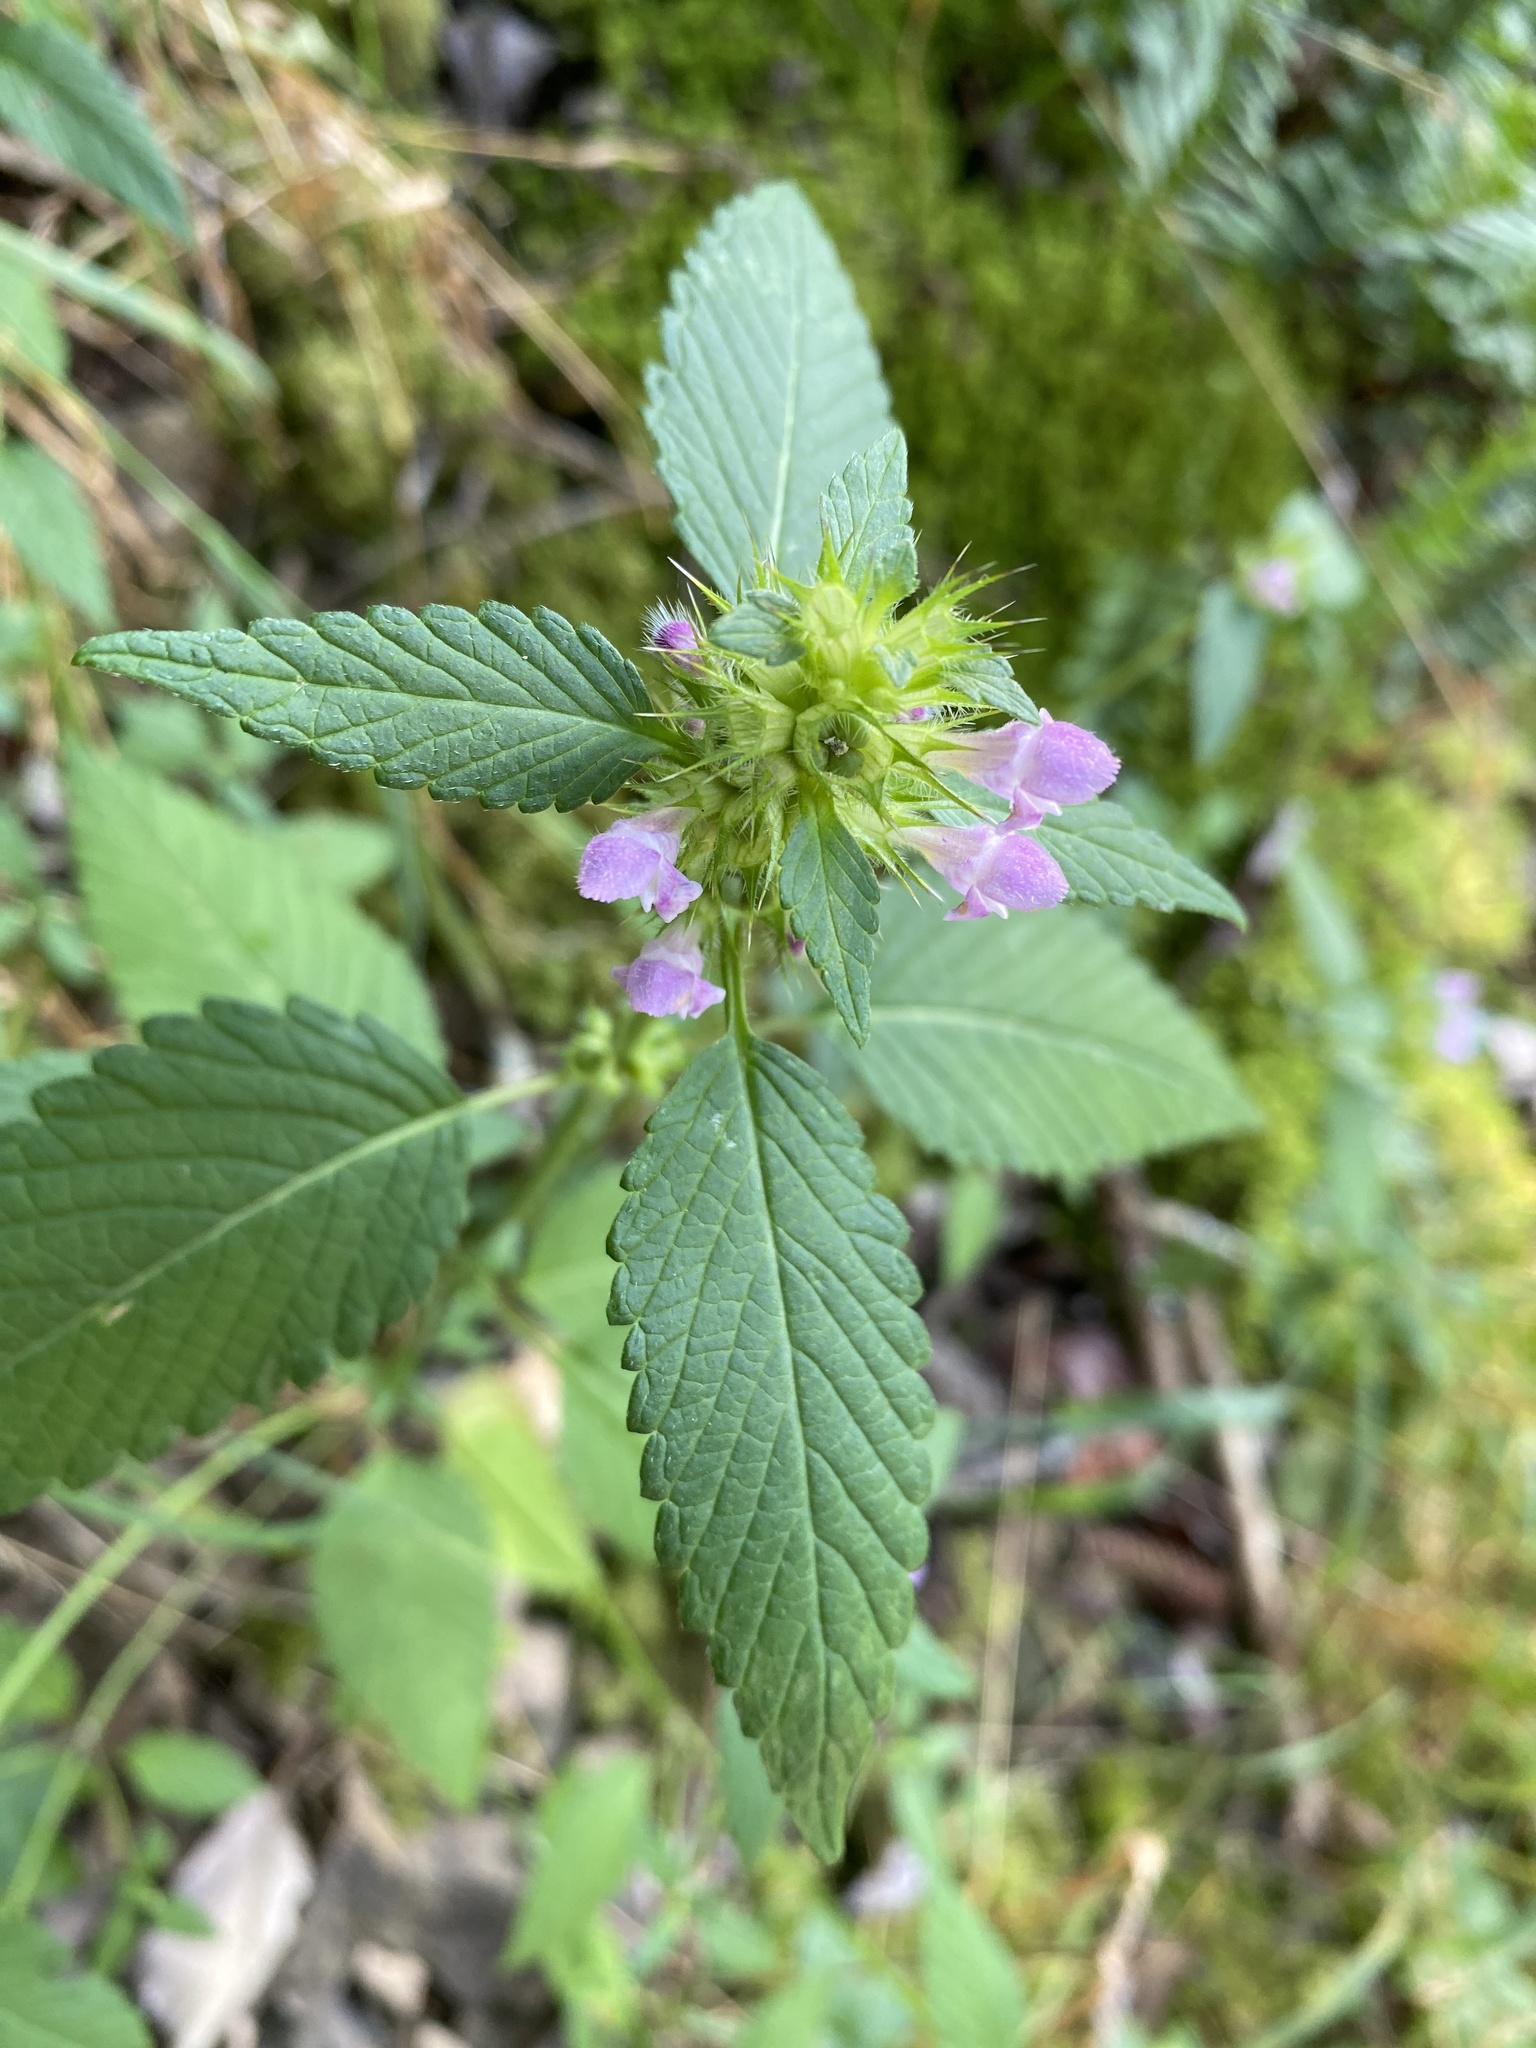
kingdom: Plantae
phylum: Tracheophyta
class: Magnoliopsida
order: Lamiales
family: Lamiaceae
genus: Galeopsis
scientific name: Galeopsis tetrahit
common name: Common hemp-nettle
